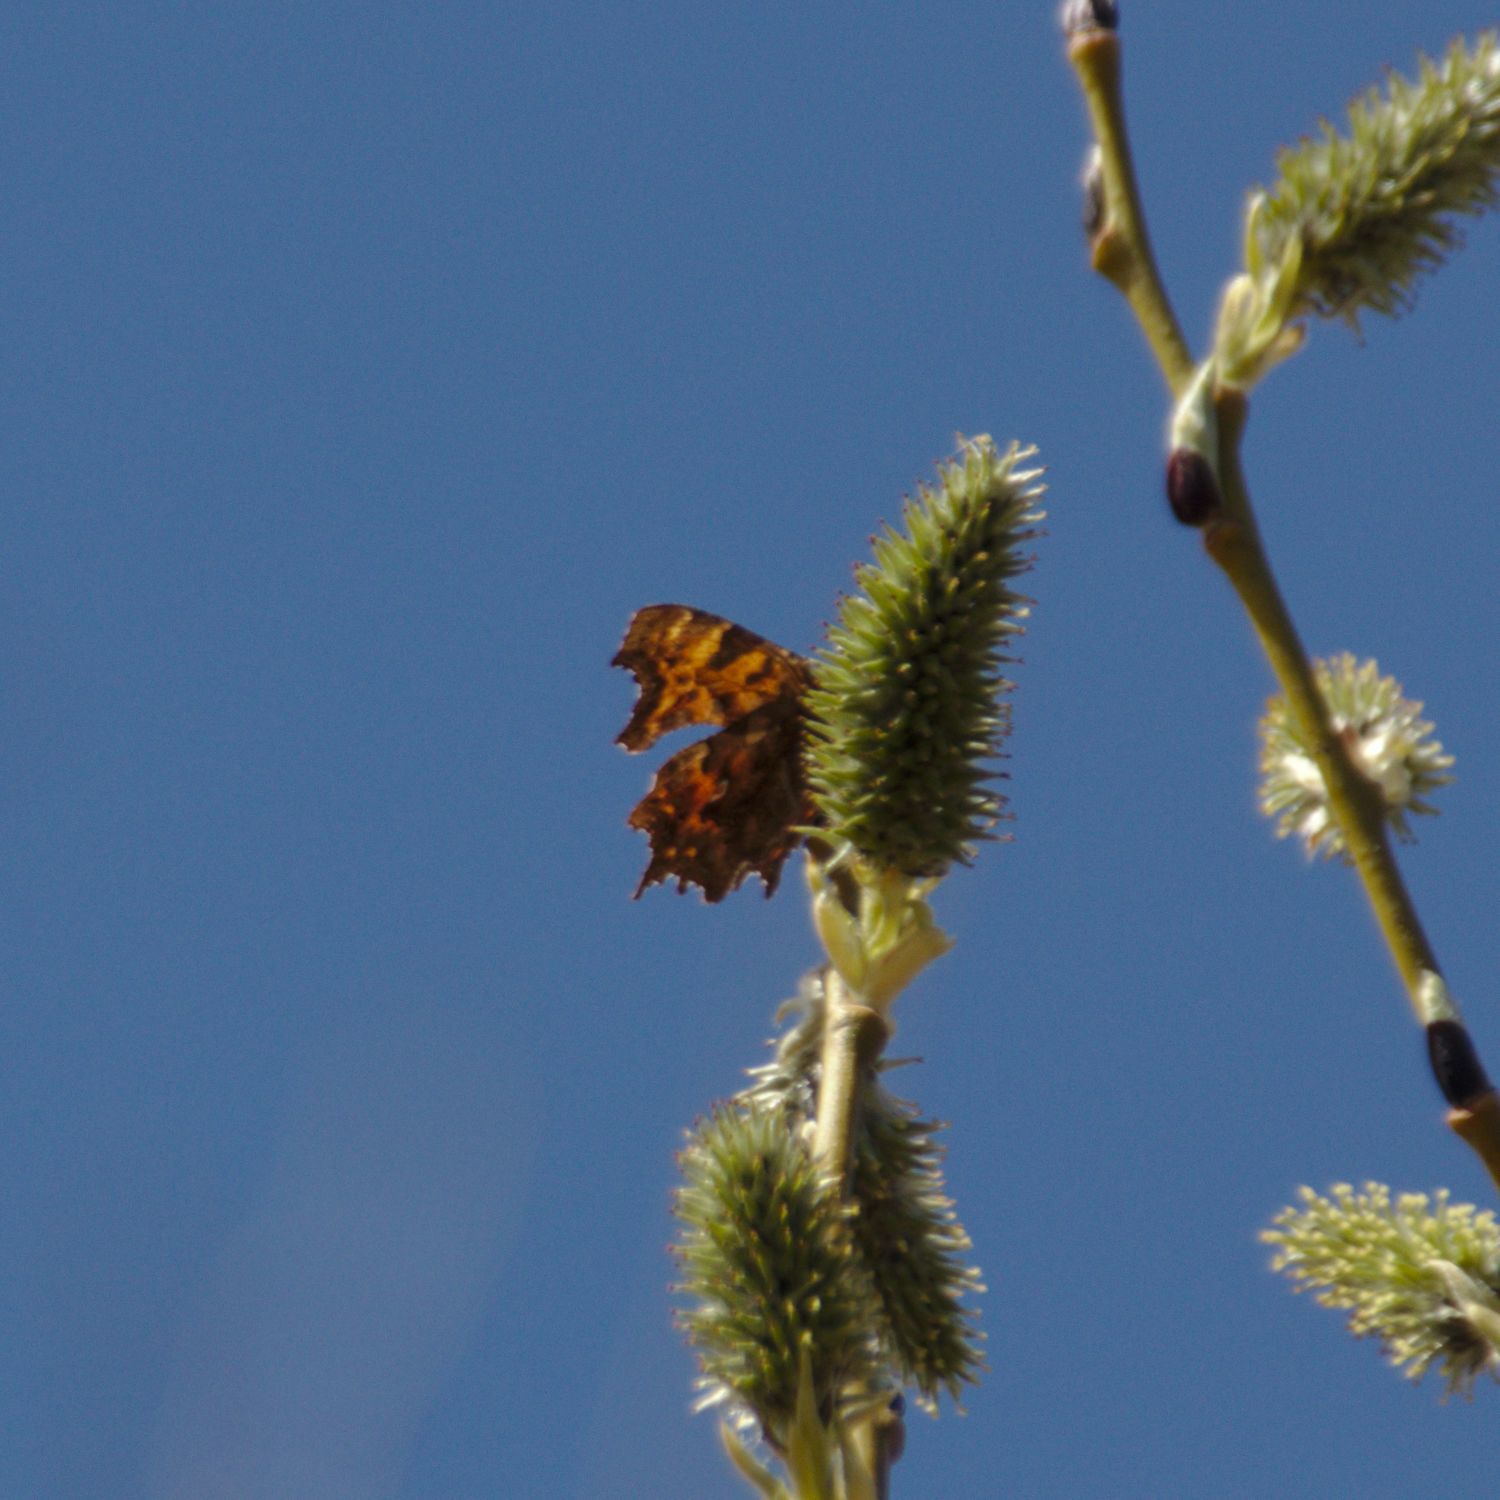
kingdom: Animalia
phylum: Arthropoda
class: Insecta
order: Lepidoptera
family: Nymphalidae
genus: Polygonia
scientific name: Polygonia c-album
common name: Comma
